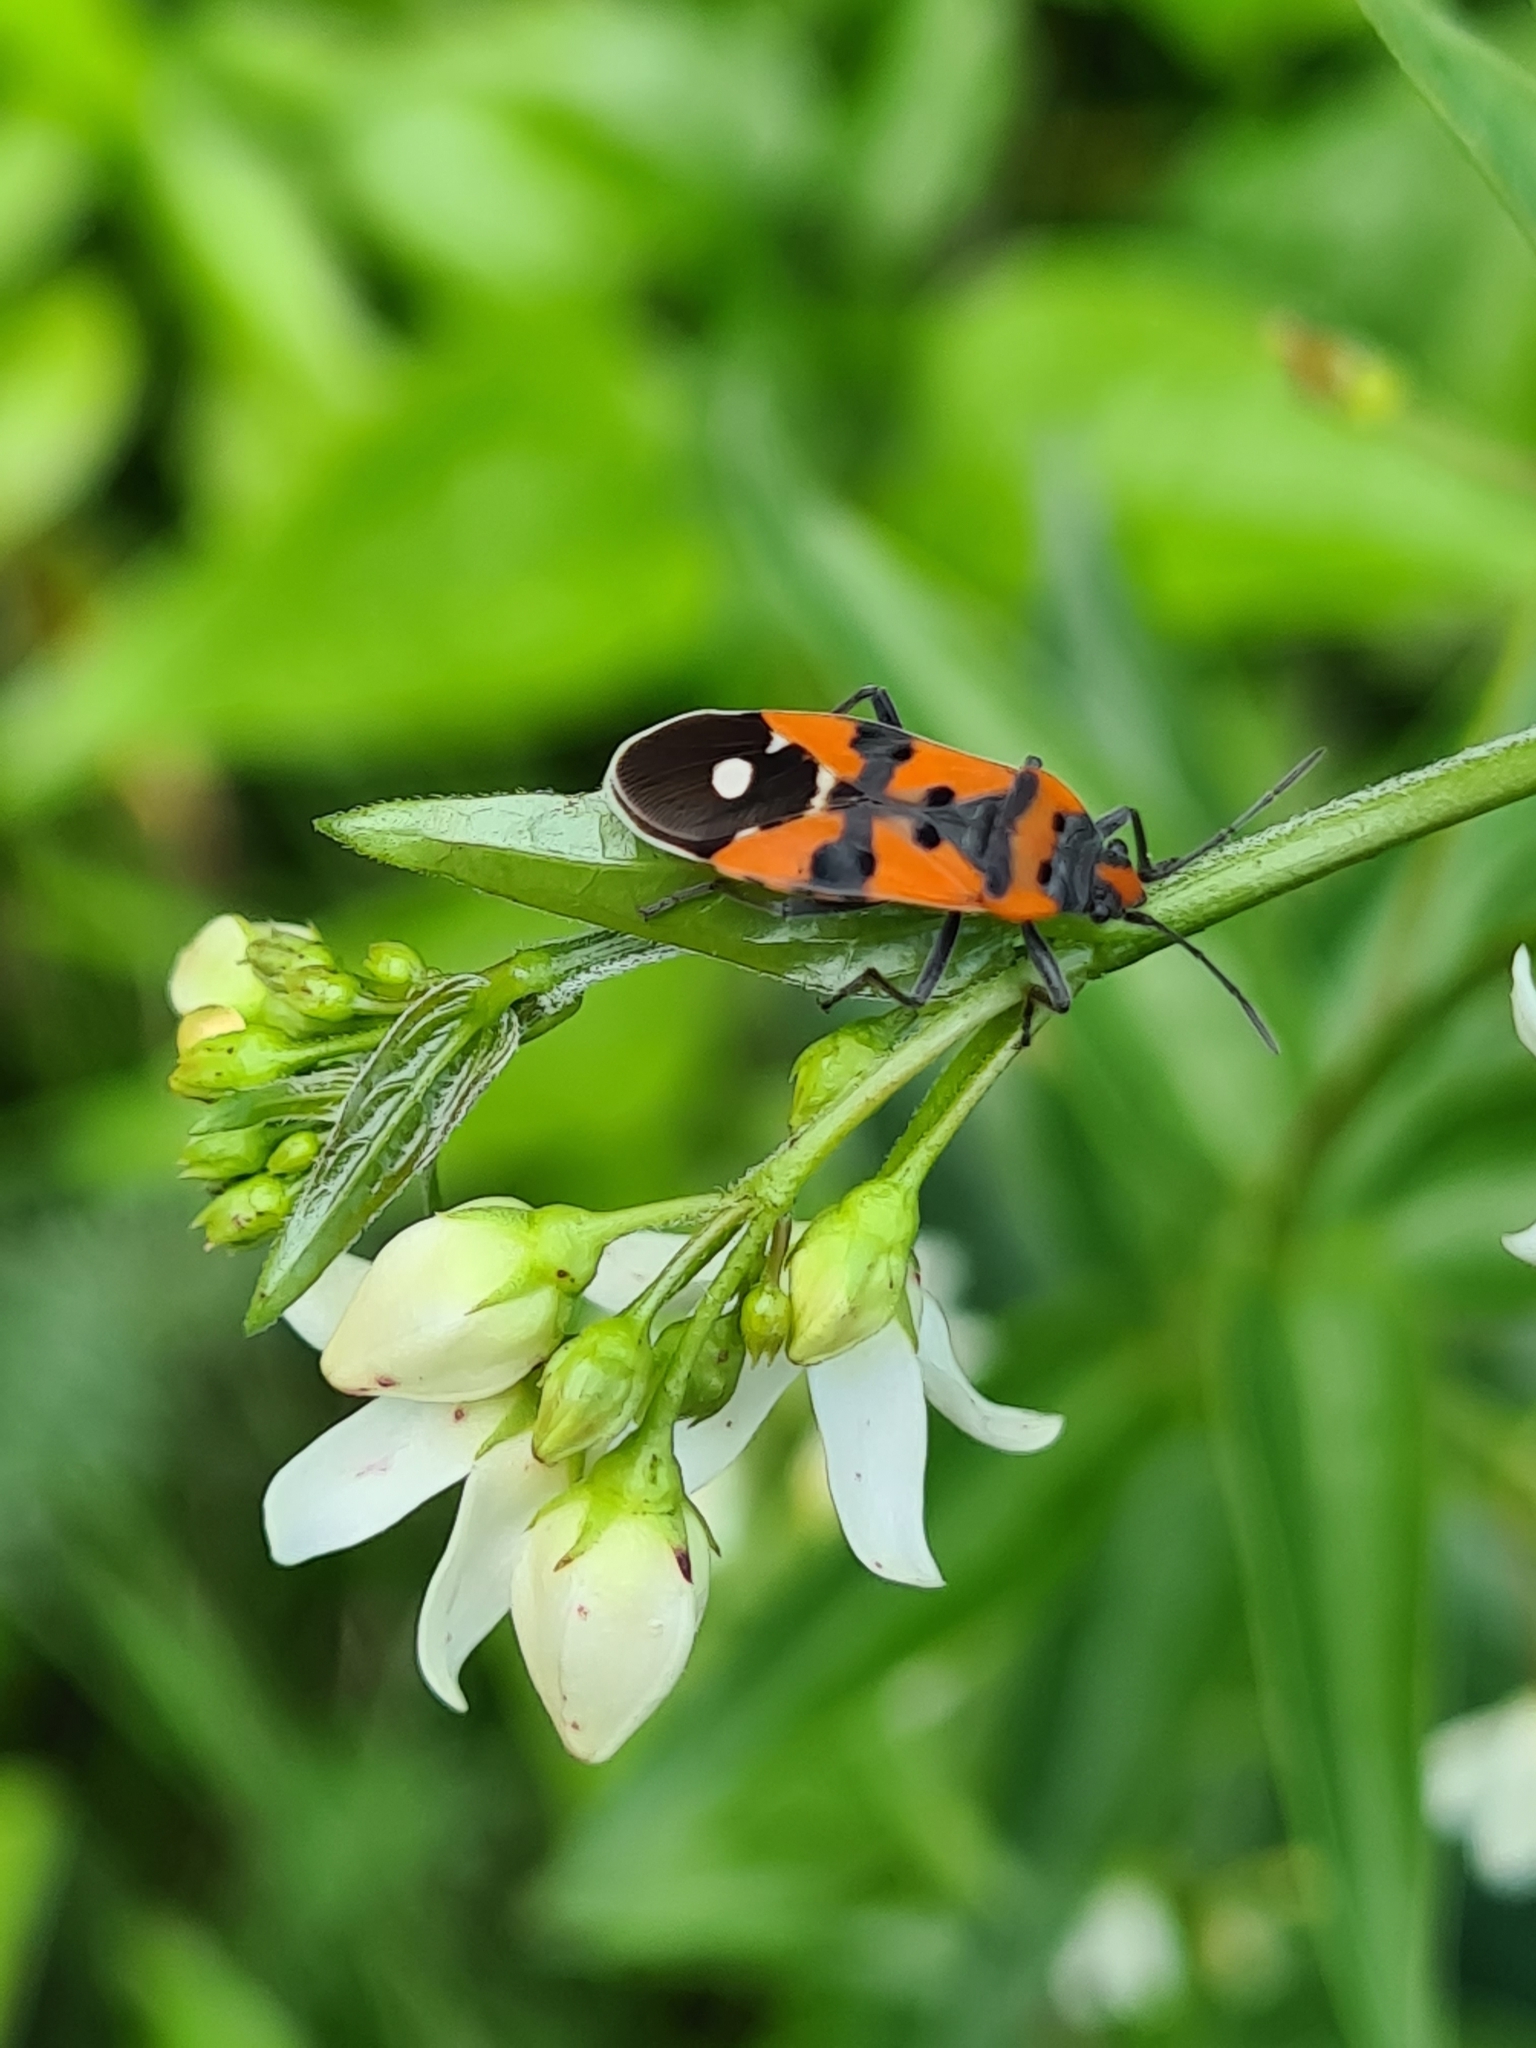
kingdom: Animalia
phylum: Arthropoda
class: Insecta
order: Hemiptera
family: Lygaeidae
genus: Lygaeus
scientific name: Lygaeus equestris
